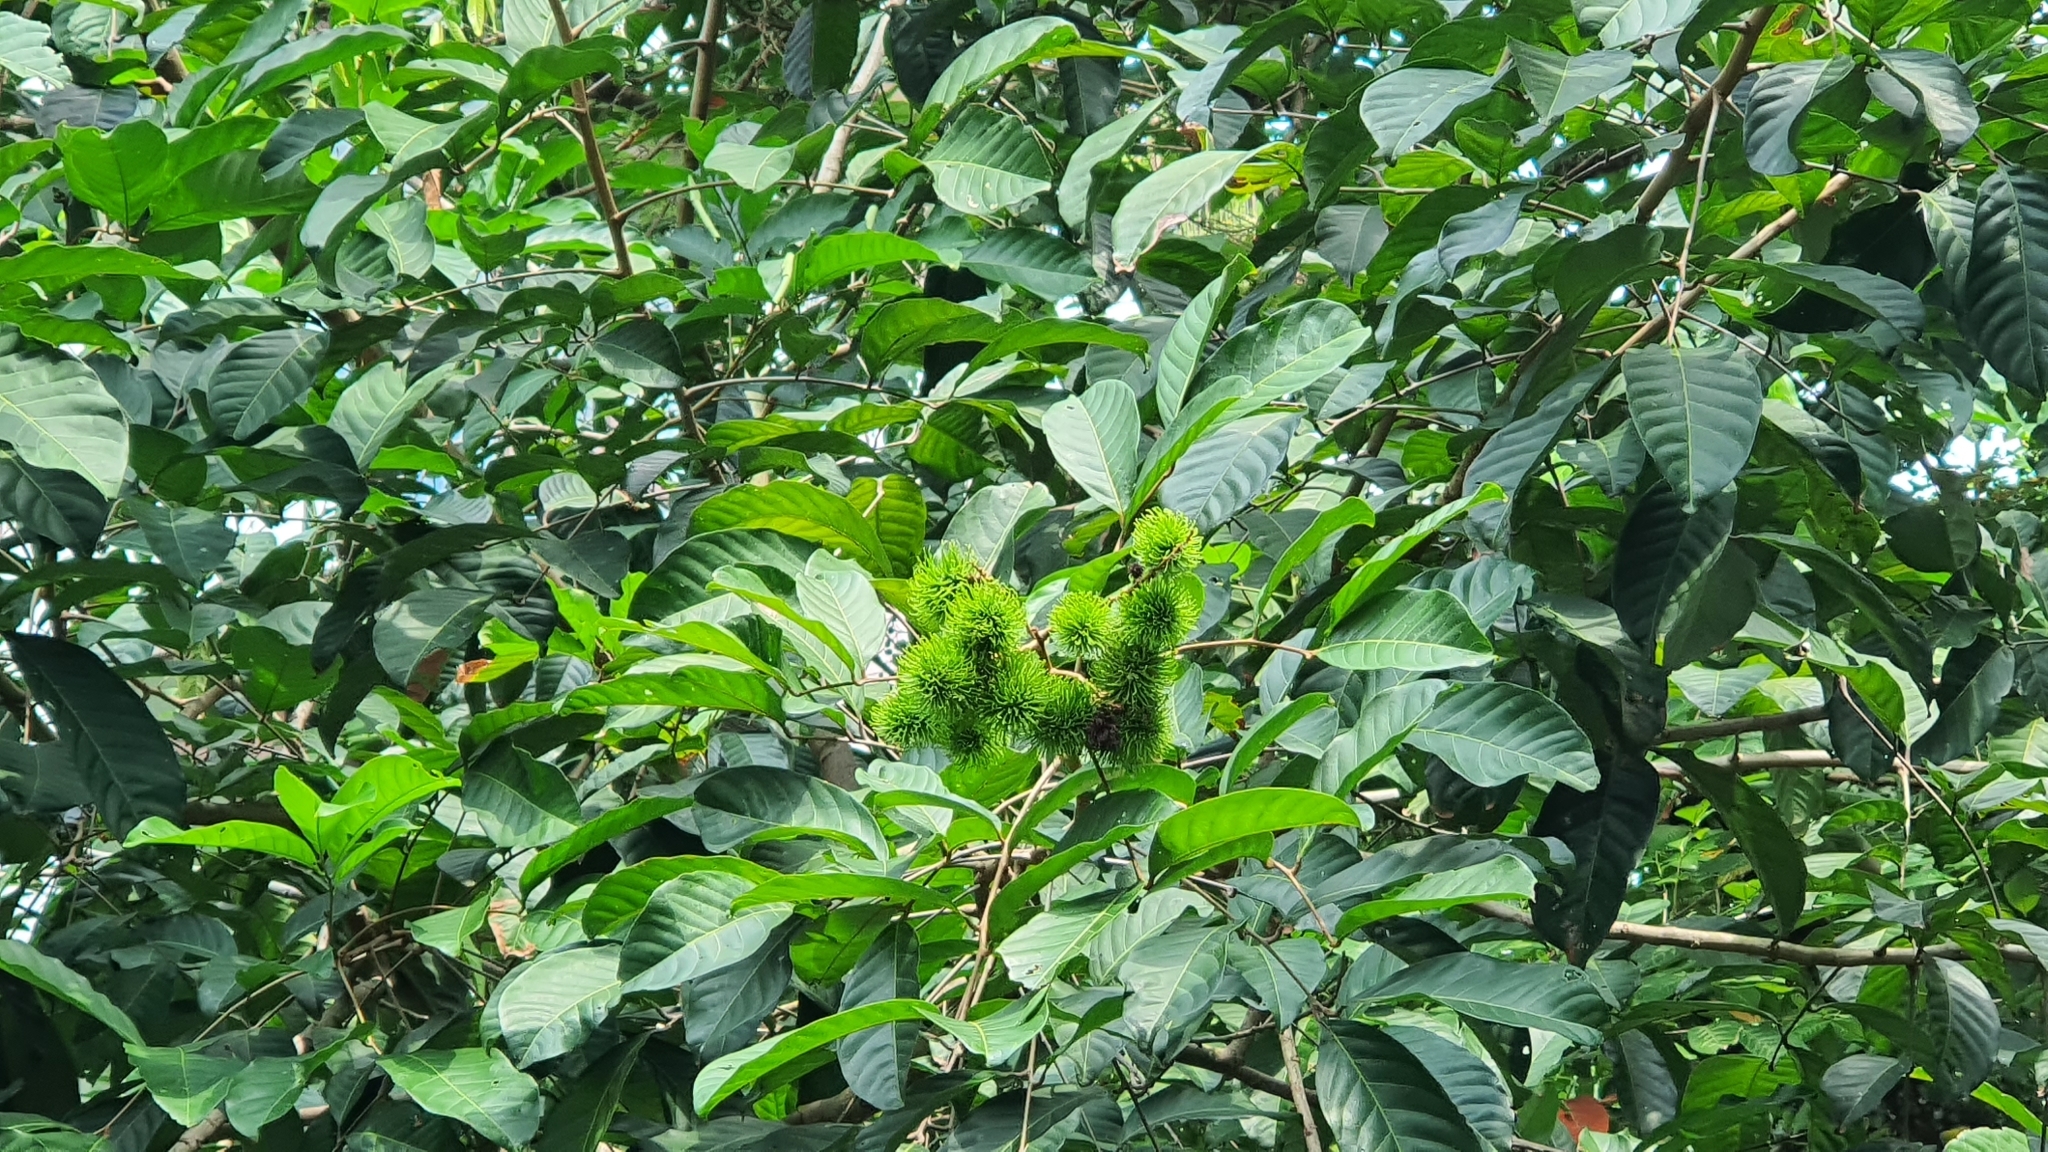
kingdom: Plantae
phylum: Tracheophyta
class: Magnoliopsida
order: Sapindales
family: Sapindaceae
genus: Nephelium
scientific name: Nephelium lappaceum
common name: Rambutan
